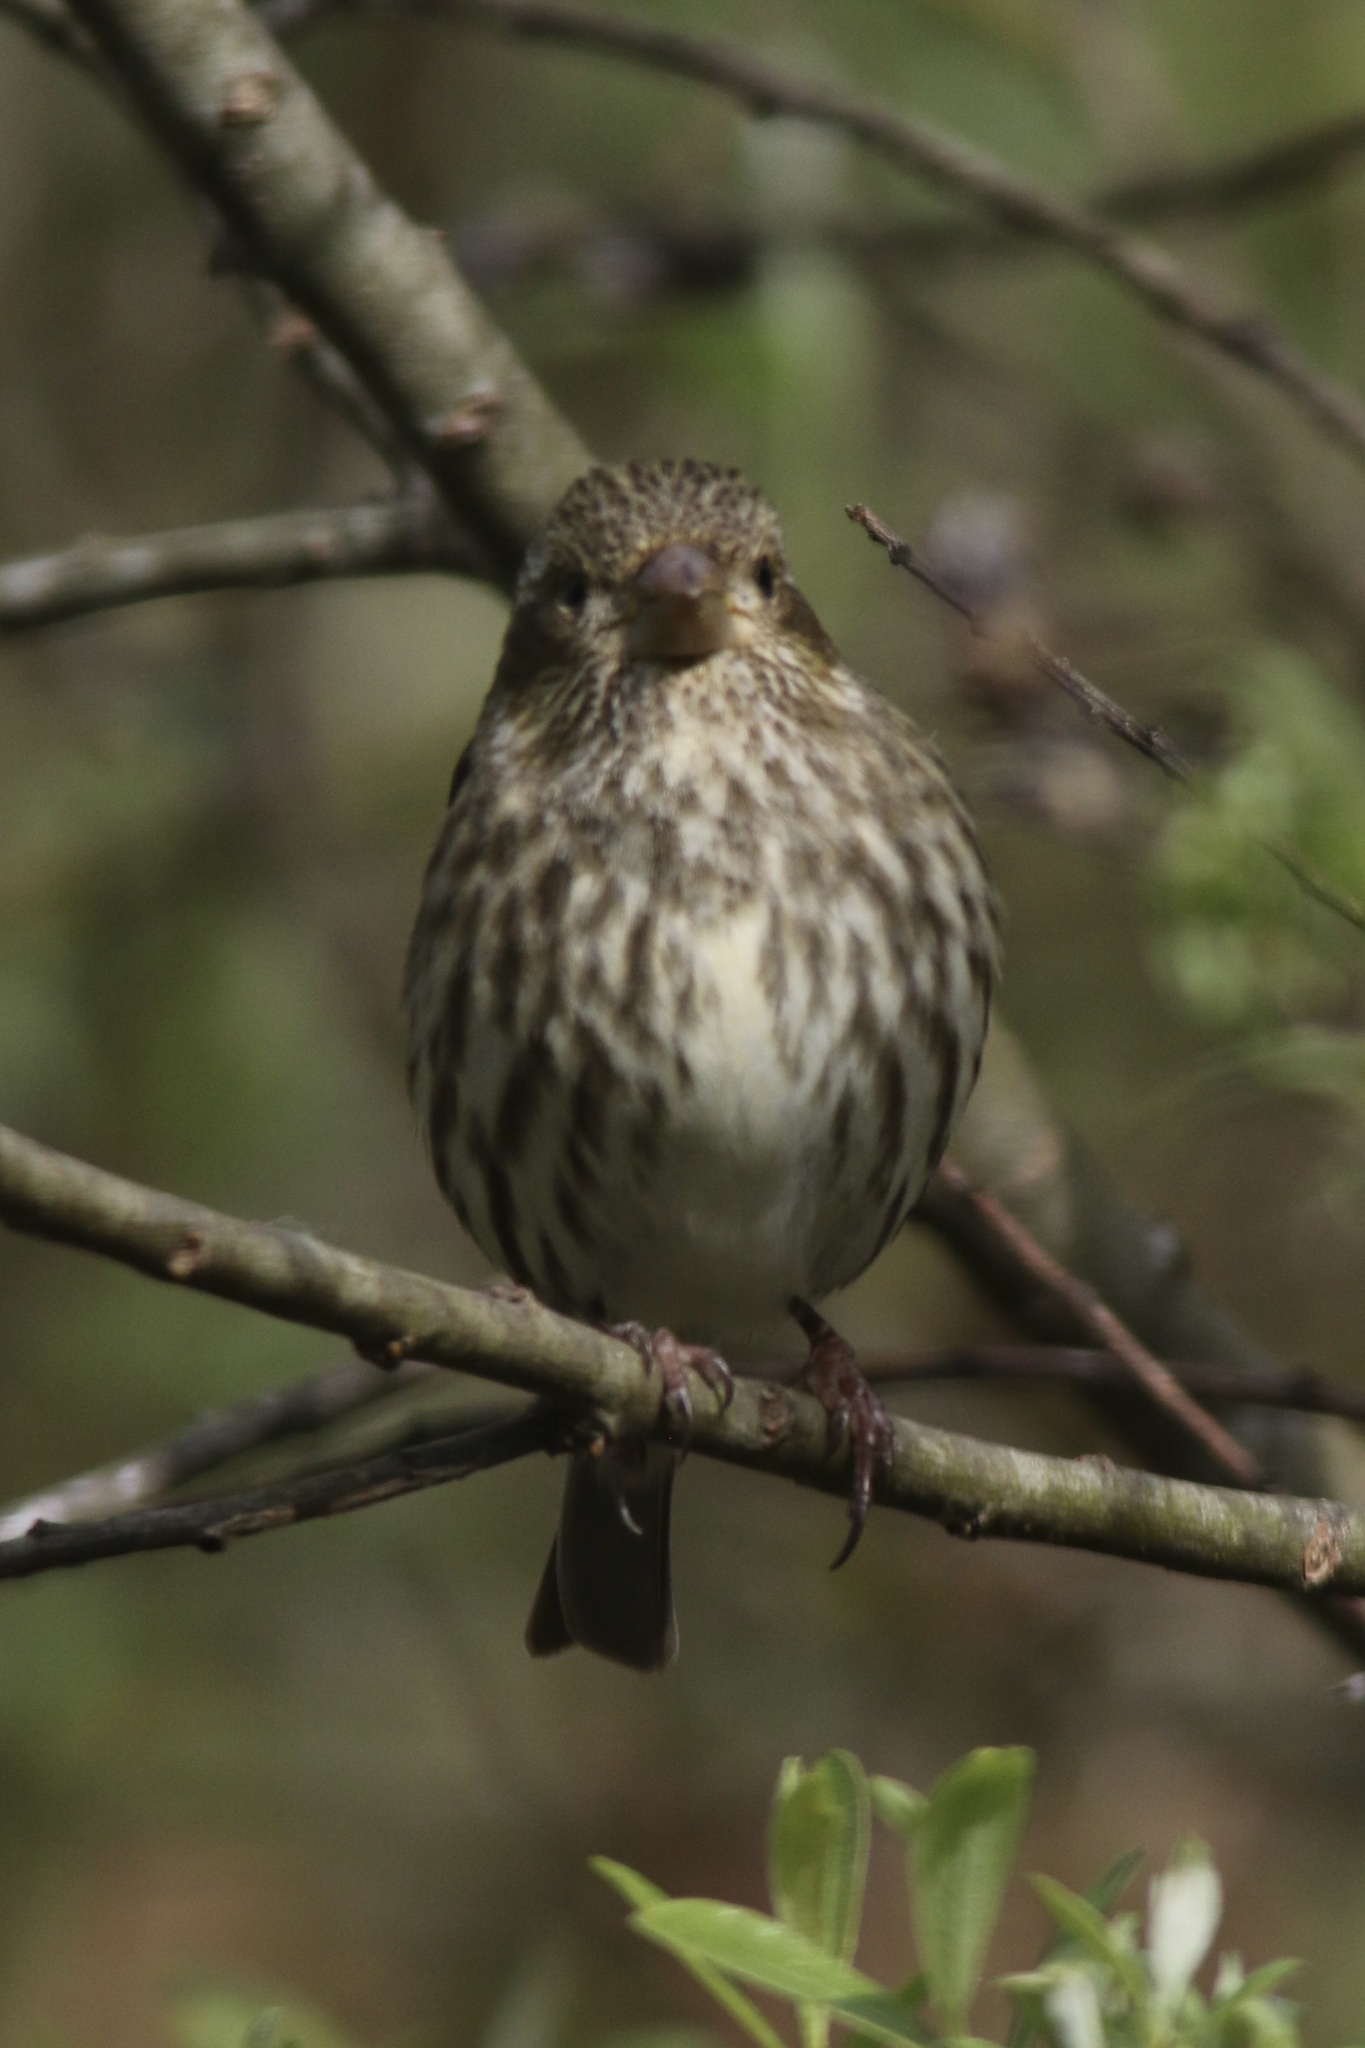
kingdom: Animalia
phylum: Chordata
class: Aves
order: Passeriformes
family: Fringillidae
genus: Haemorhous
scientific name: Haemorhous purpureus
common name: Purple finch
